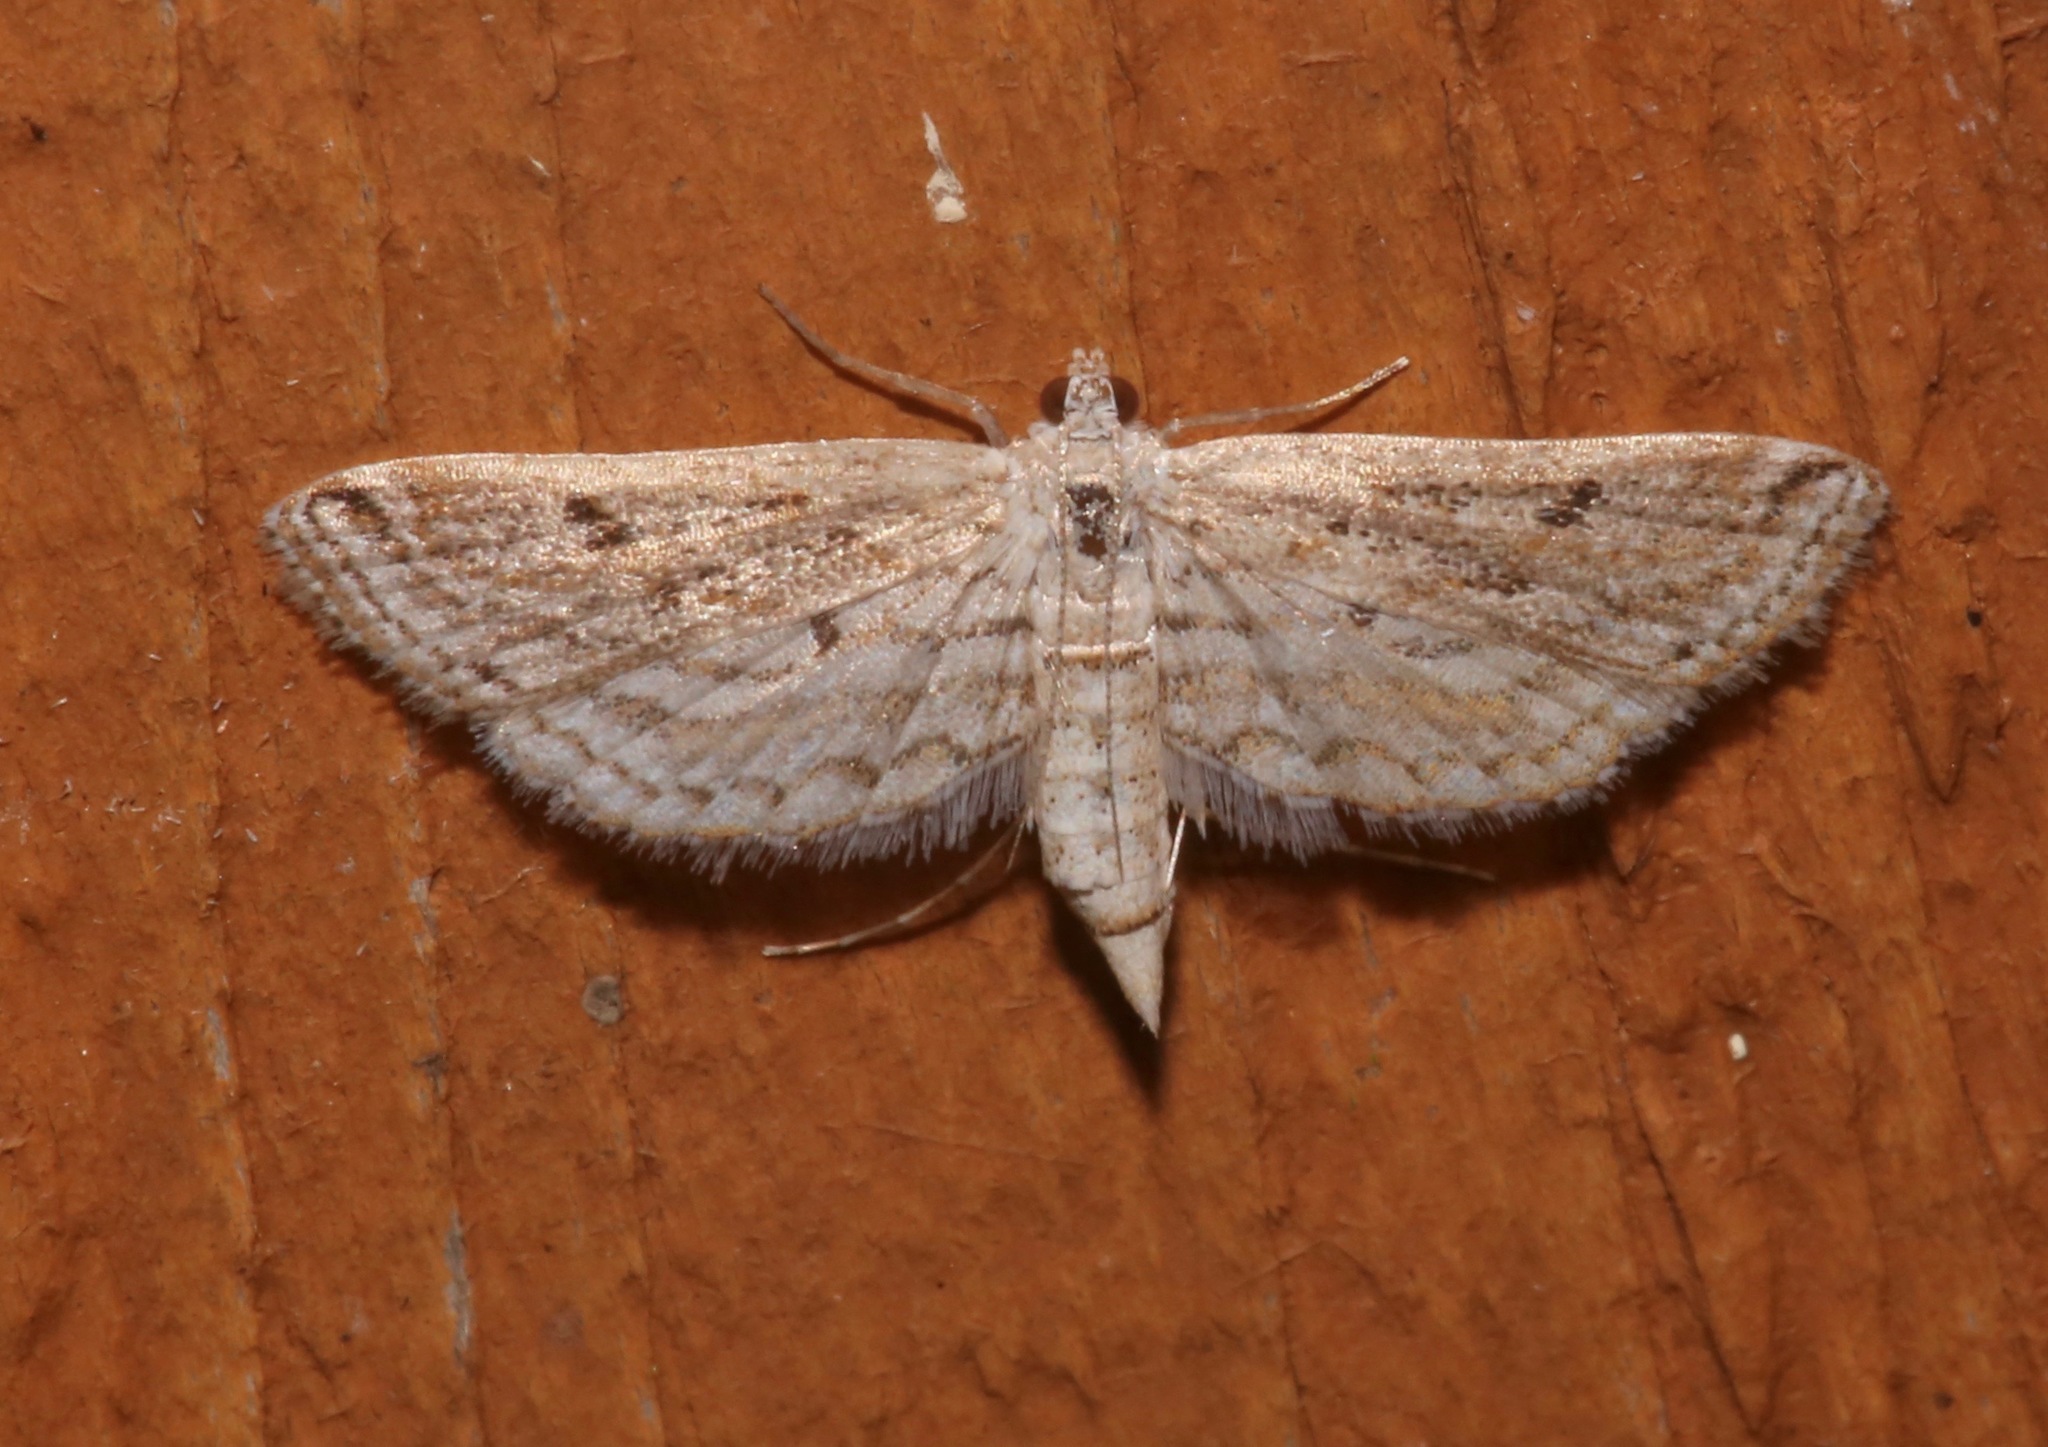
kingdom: Animalia
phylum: Arthropoda
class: Insecta
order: Lepidoptera
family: Crambidae
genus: Parapoynx
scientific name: Parapoynx allionealis
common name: Bladderwort casemaker
